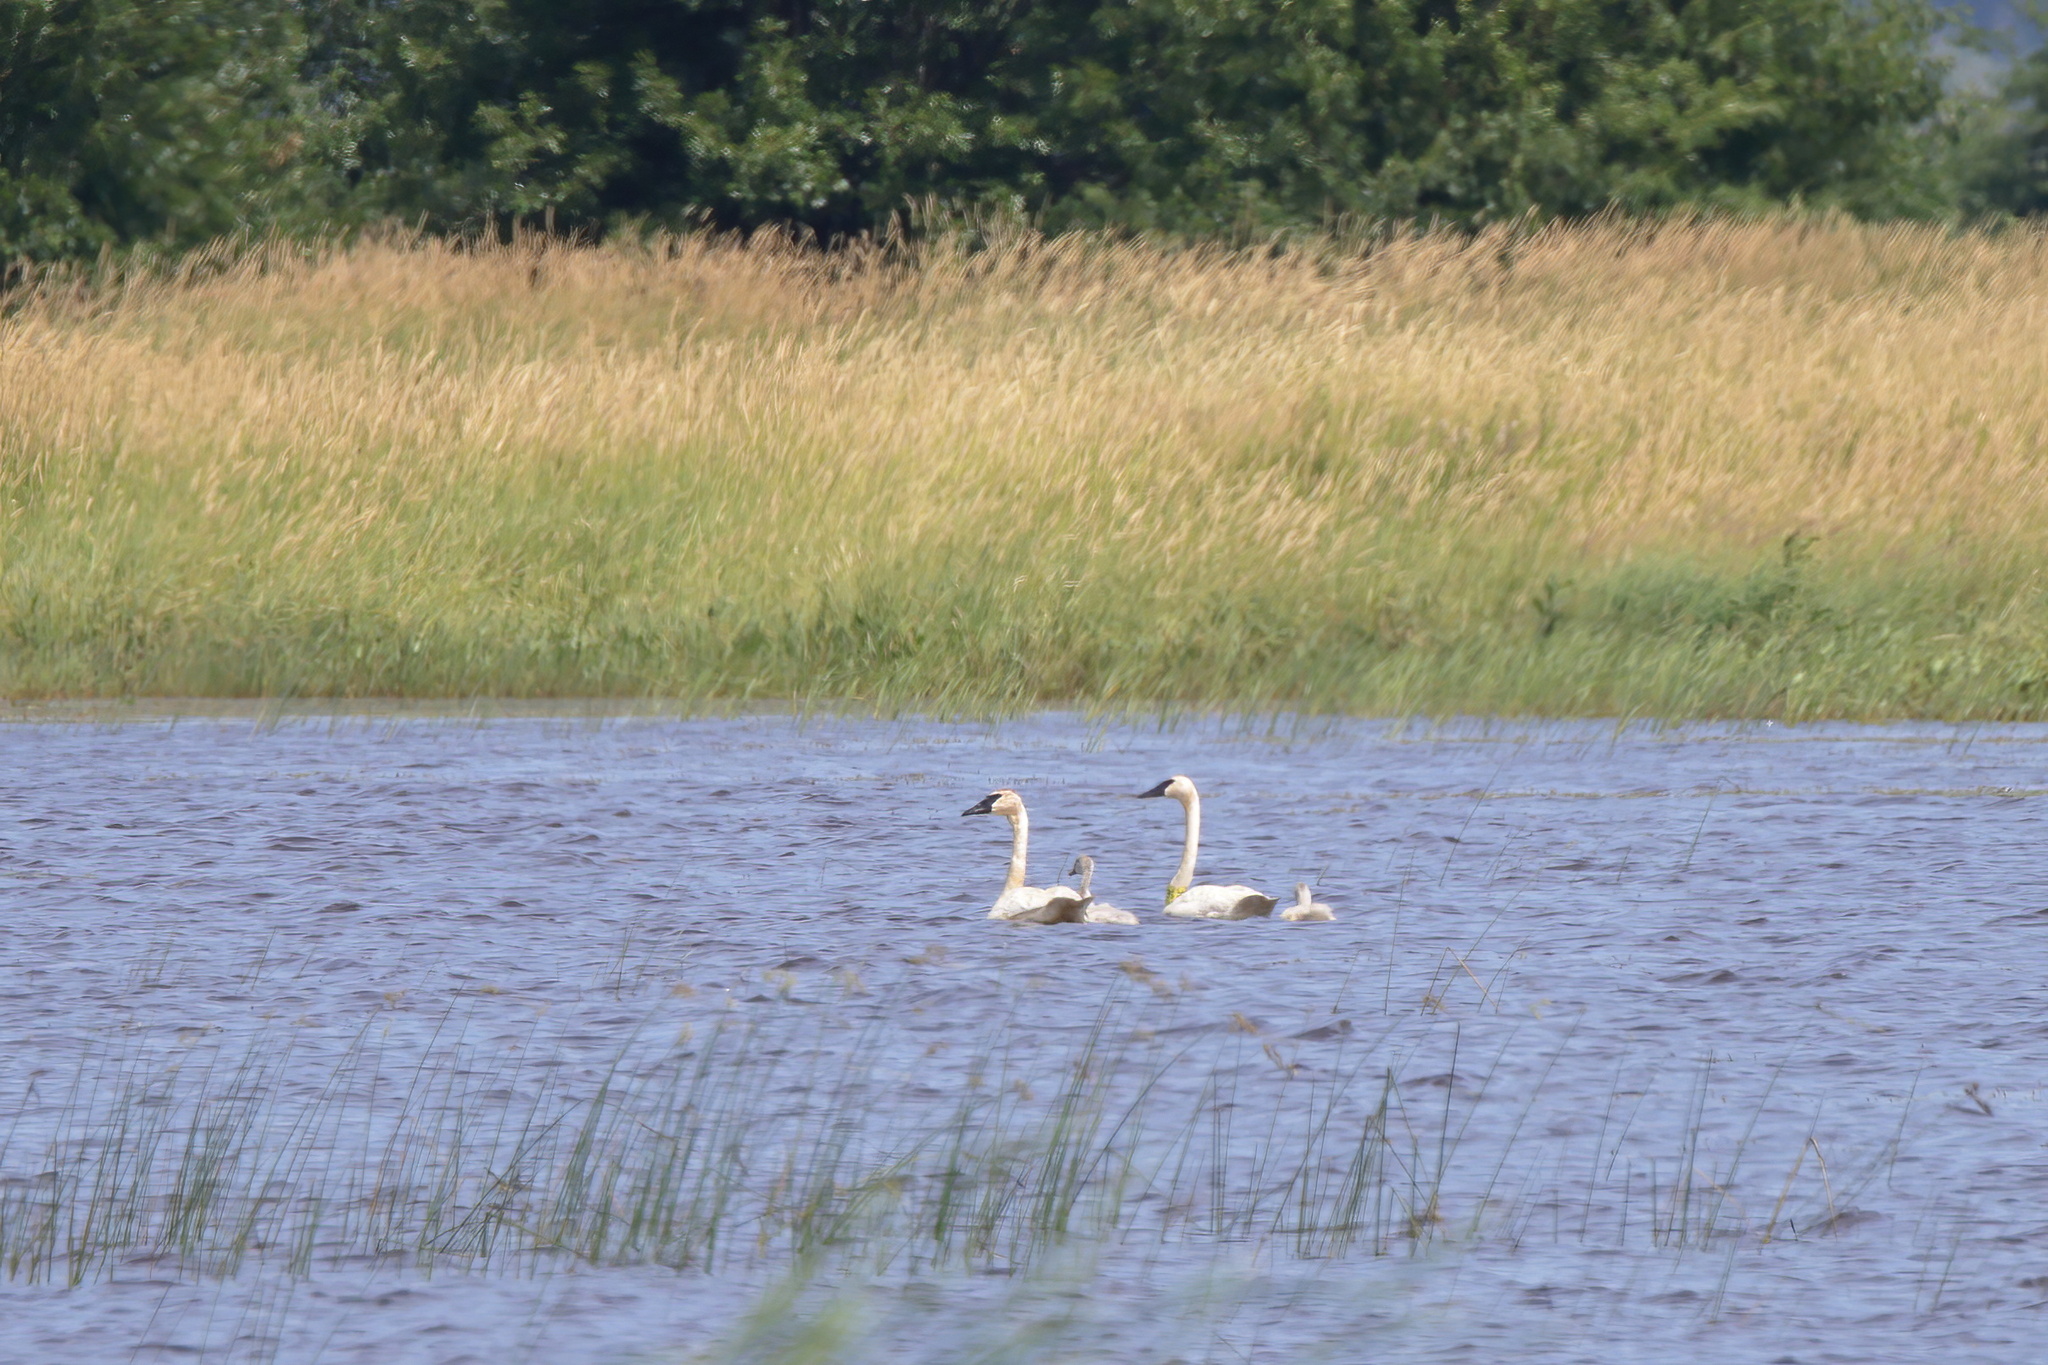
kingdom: Animalia
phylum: Chordata
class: Aves
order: Anseriformes
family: Anatidae
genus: Cygnus
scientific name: Cygnus buccinator
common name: Trumpeter swan
